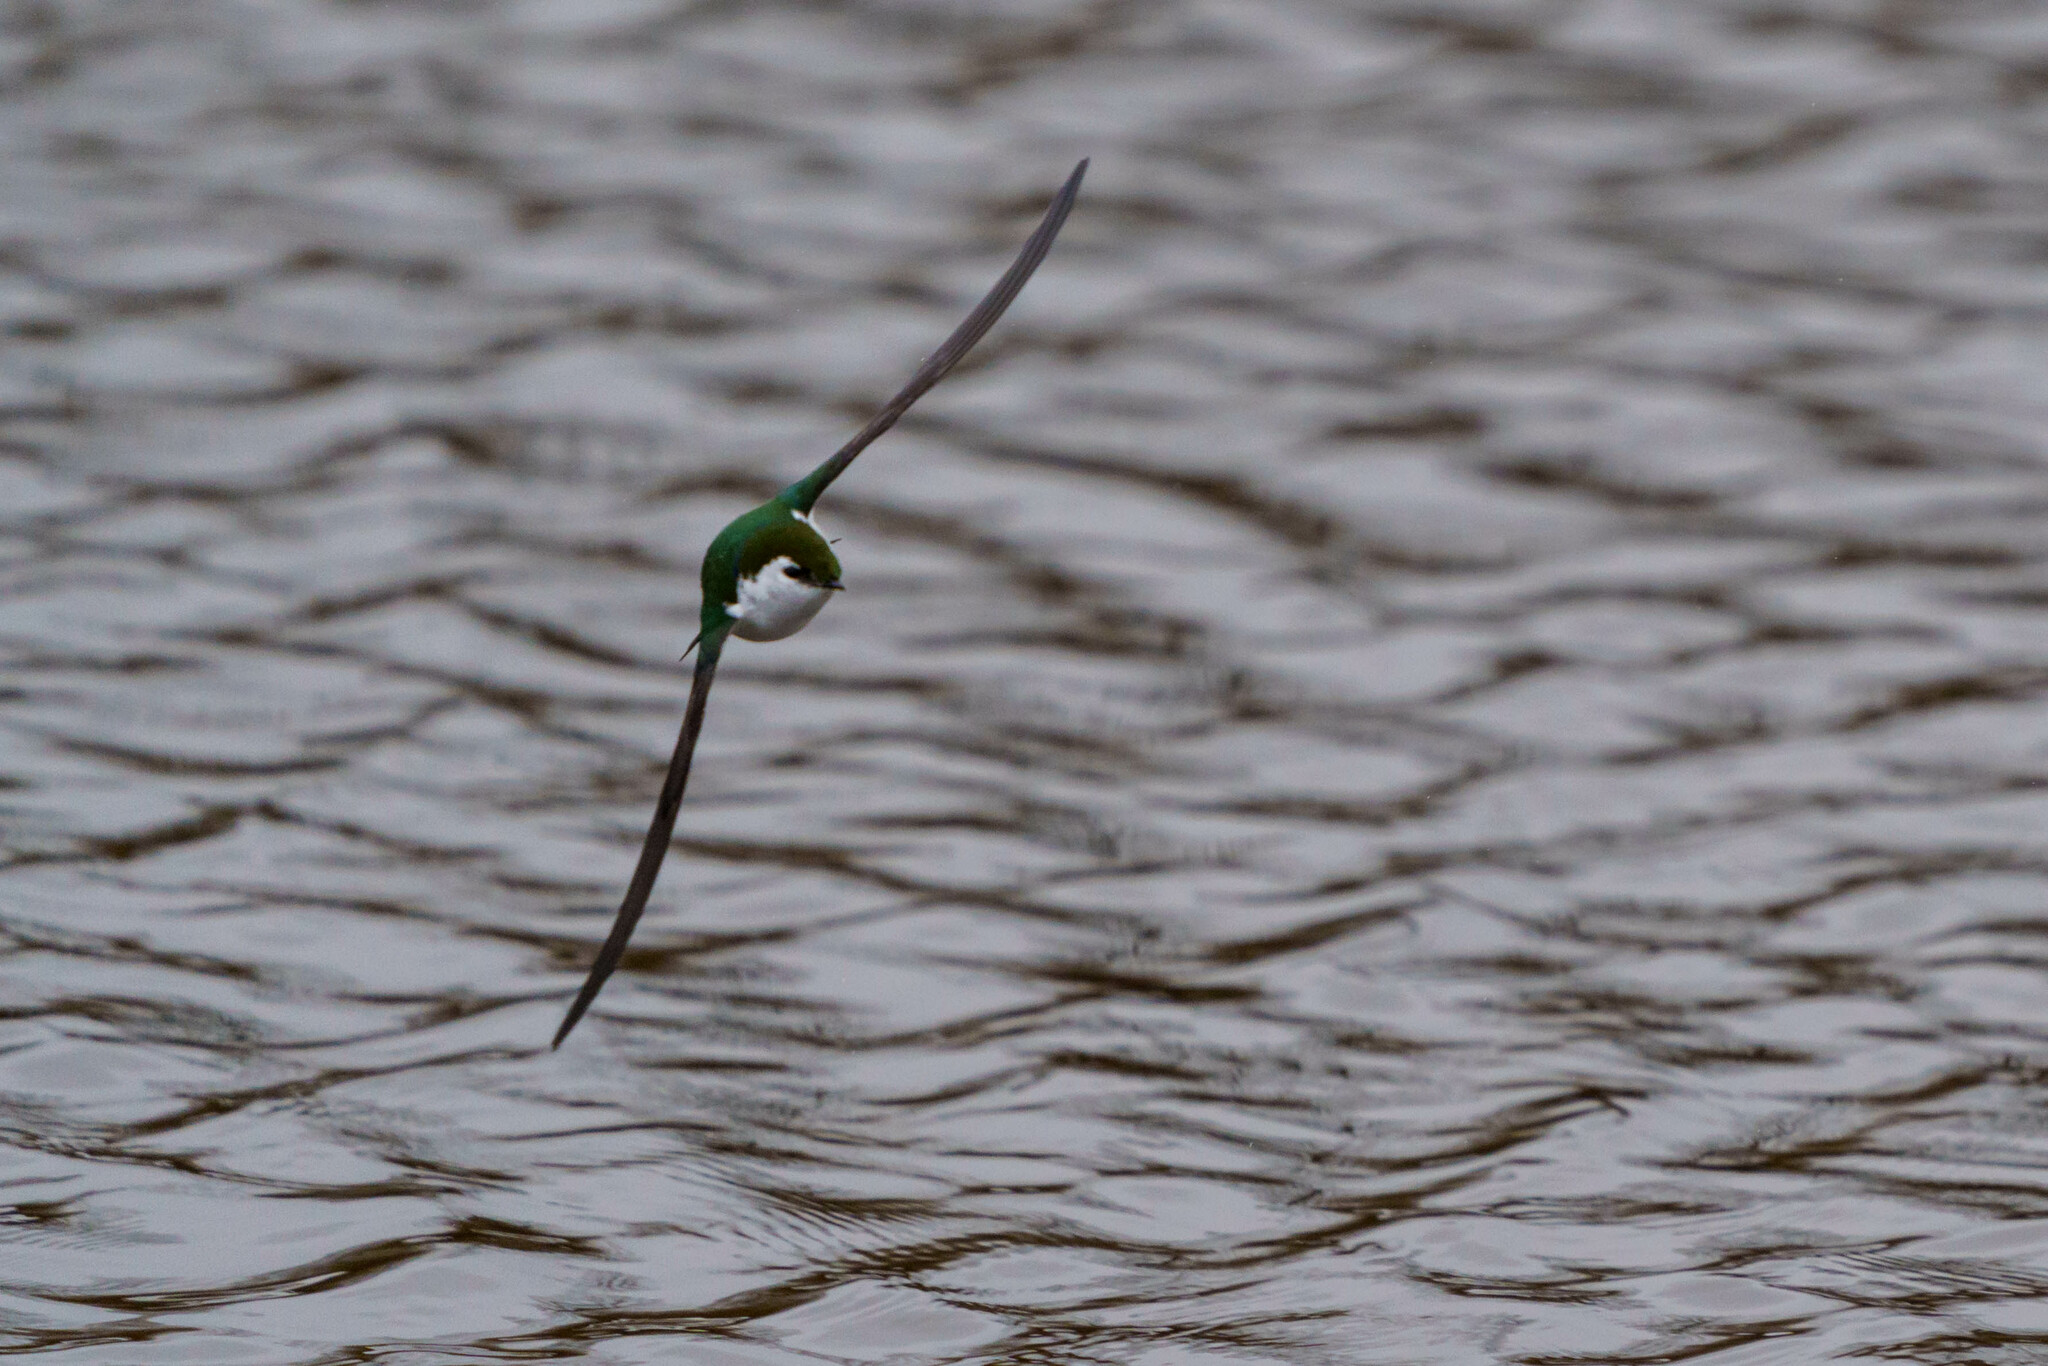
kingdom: Animalia
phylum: Chordata
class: Aves
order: Passeriformes
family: Hirundinidae
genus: Tachycineta
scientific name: Tachycineta thalassina
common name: Violet-green swallow
